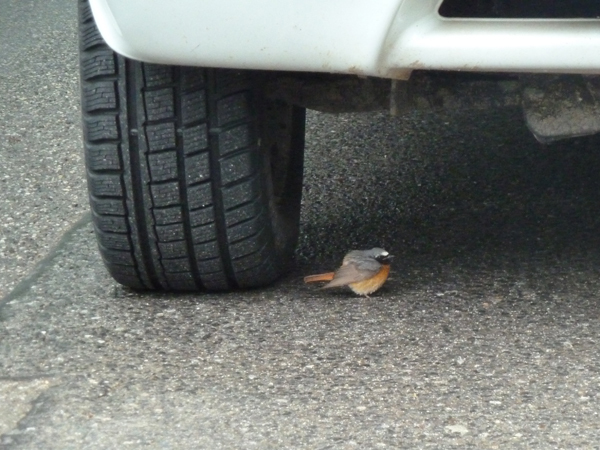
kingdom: Animalia
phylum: Chordata
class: Aves
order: Passeriformes
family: Muscicapidae
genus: Phoenicurus
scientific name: Phoenicurus phoenicurus
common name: Common redstart
